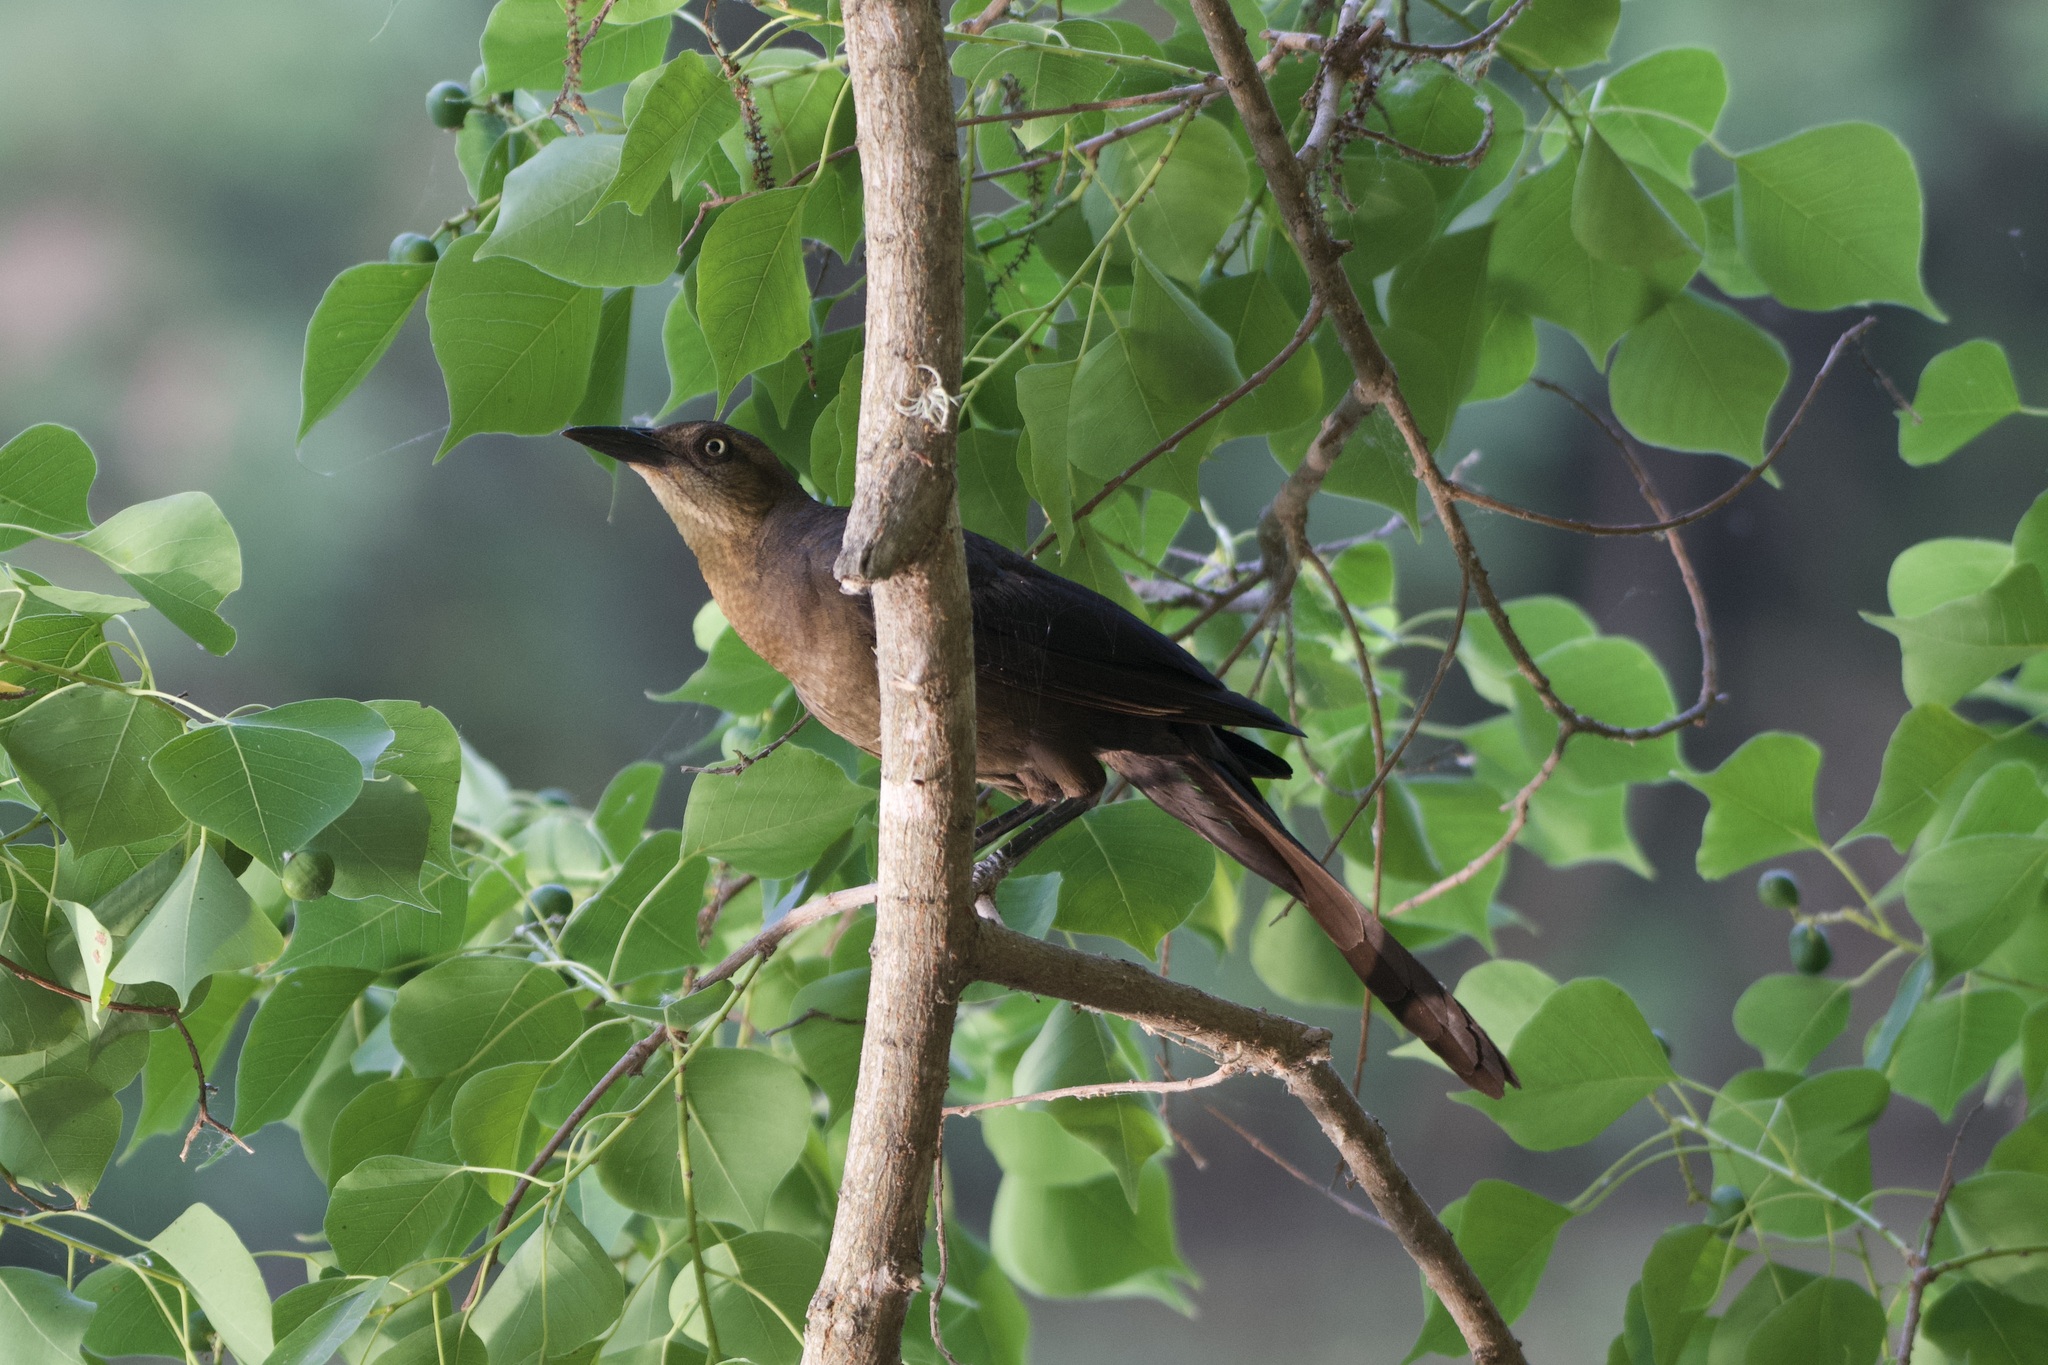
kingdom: Animalia
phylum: Chordata
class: Aves
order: Passeriformes
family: Icteridae
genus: Quiscalus
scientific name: Quiscalus mexicanus
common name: Great-tailed grackle
